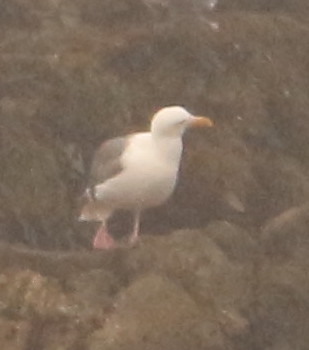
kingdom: Animalia
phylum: Chordata
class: Aves
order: Charadriiformes
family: Laridae
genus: Larus
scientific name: Larus occidentalis
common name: Western gull
